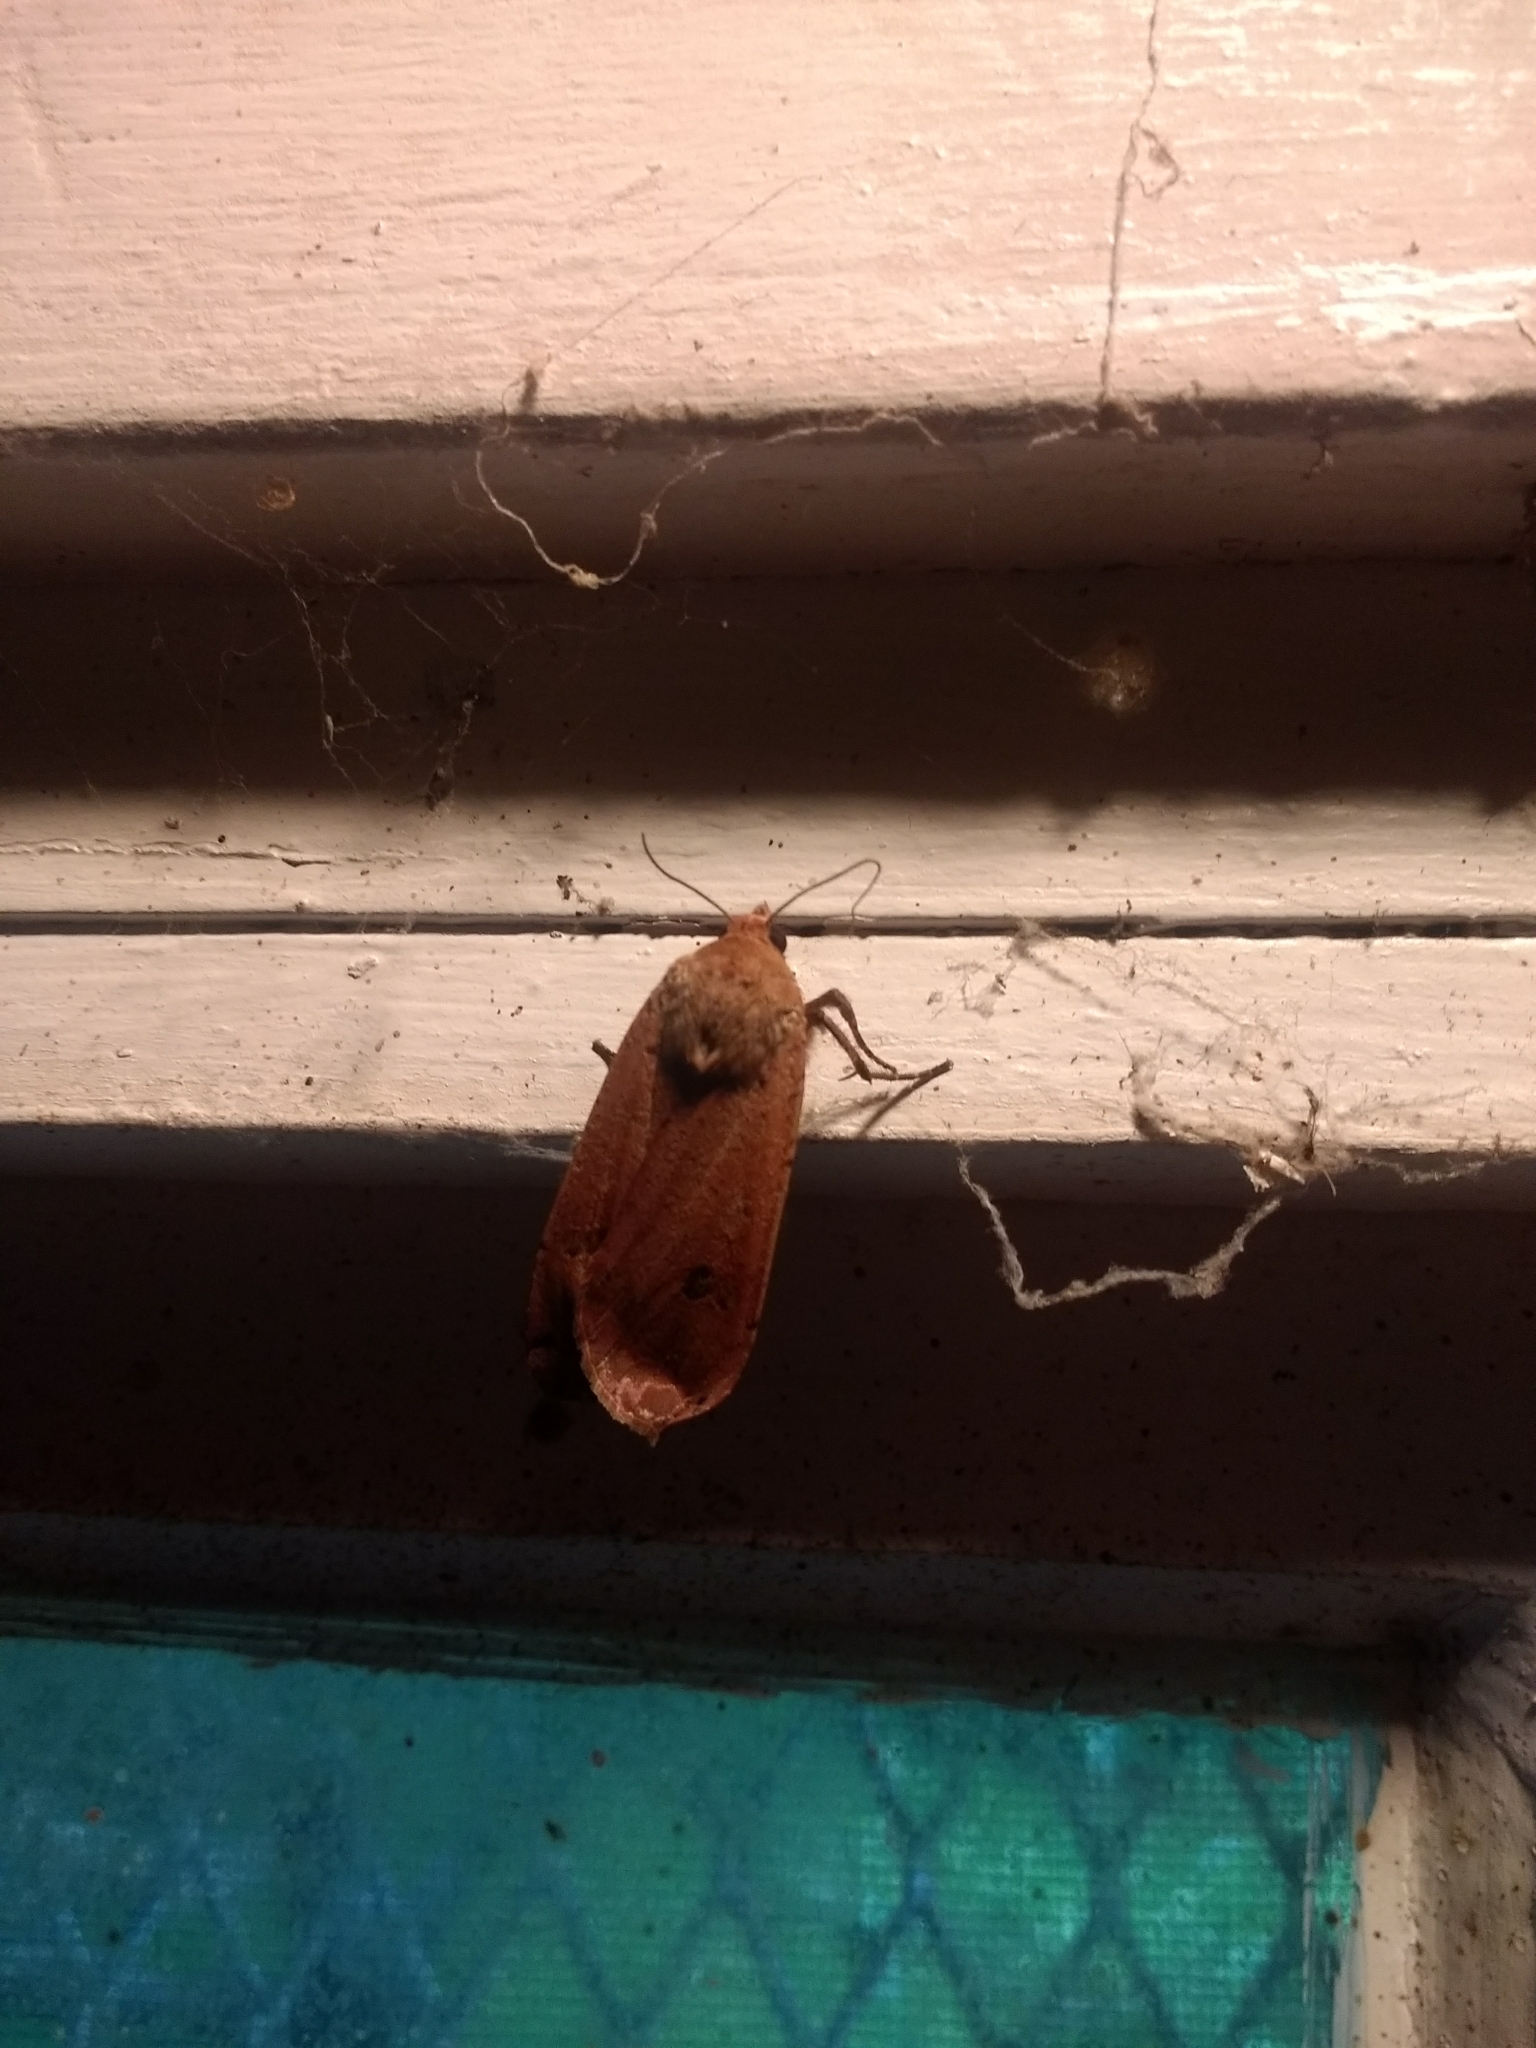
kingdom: Animalia
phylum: Arthropoda
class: Insecta
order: Lepidoptera
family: Noctuidae
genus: Noctua
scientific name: Noctua pronuba
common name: Large yellow underwing
